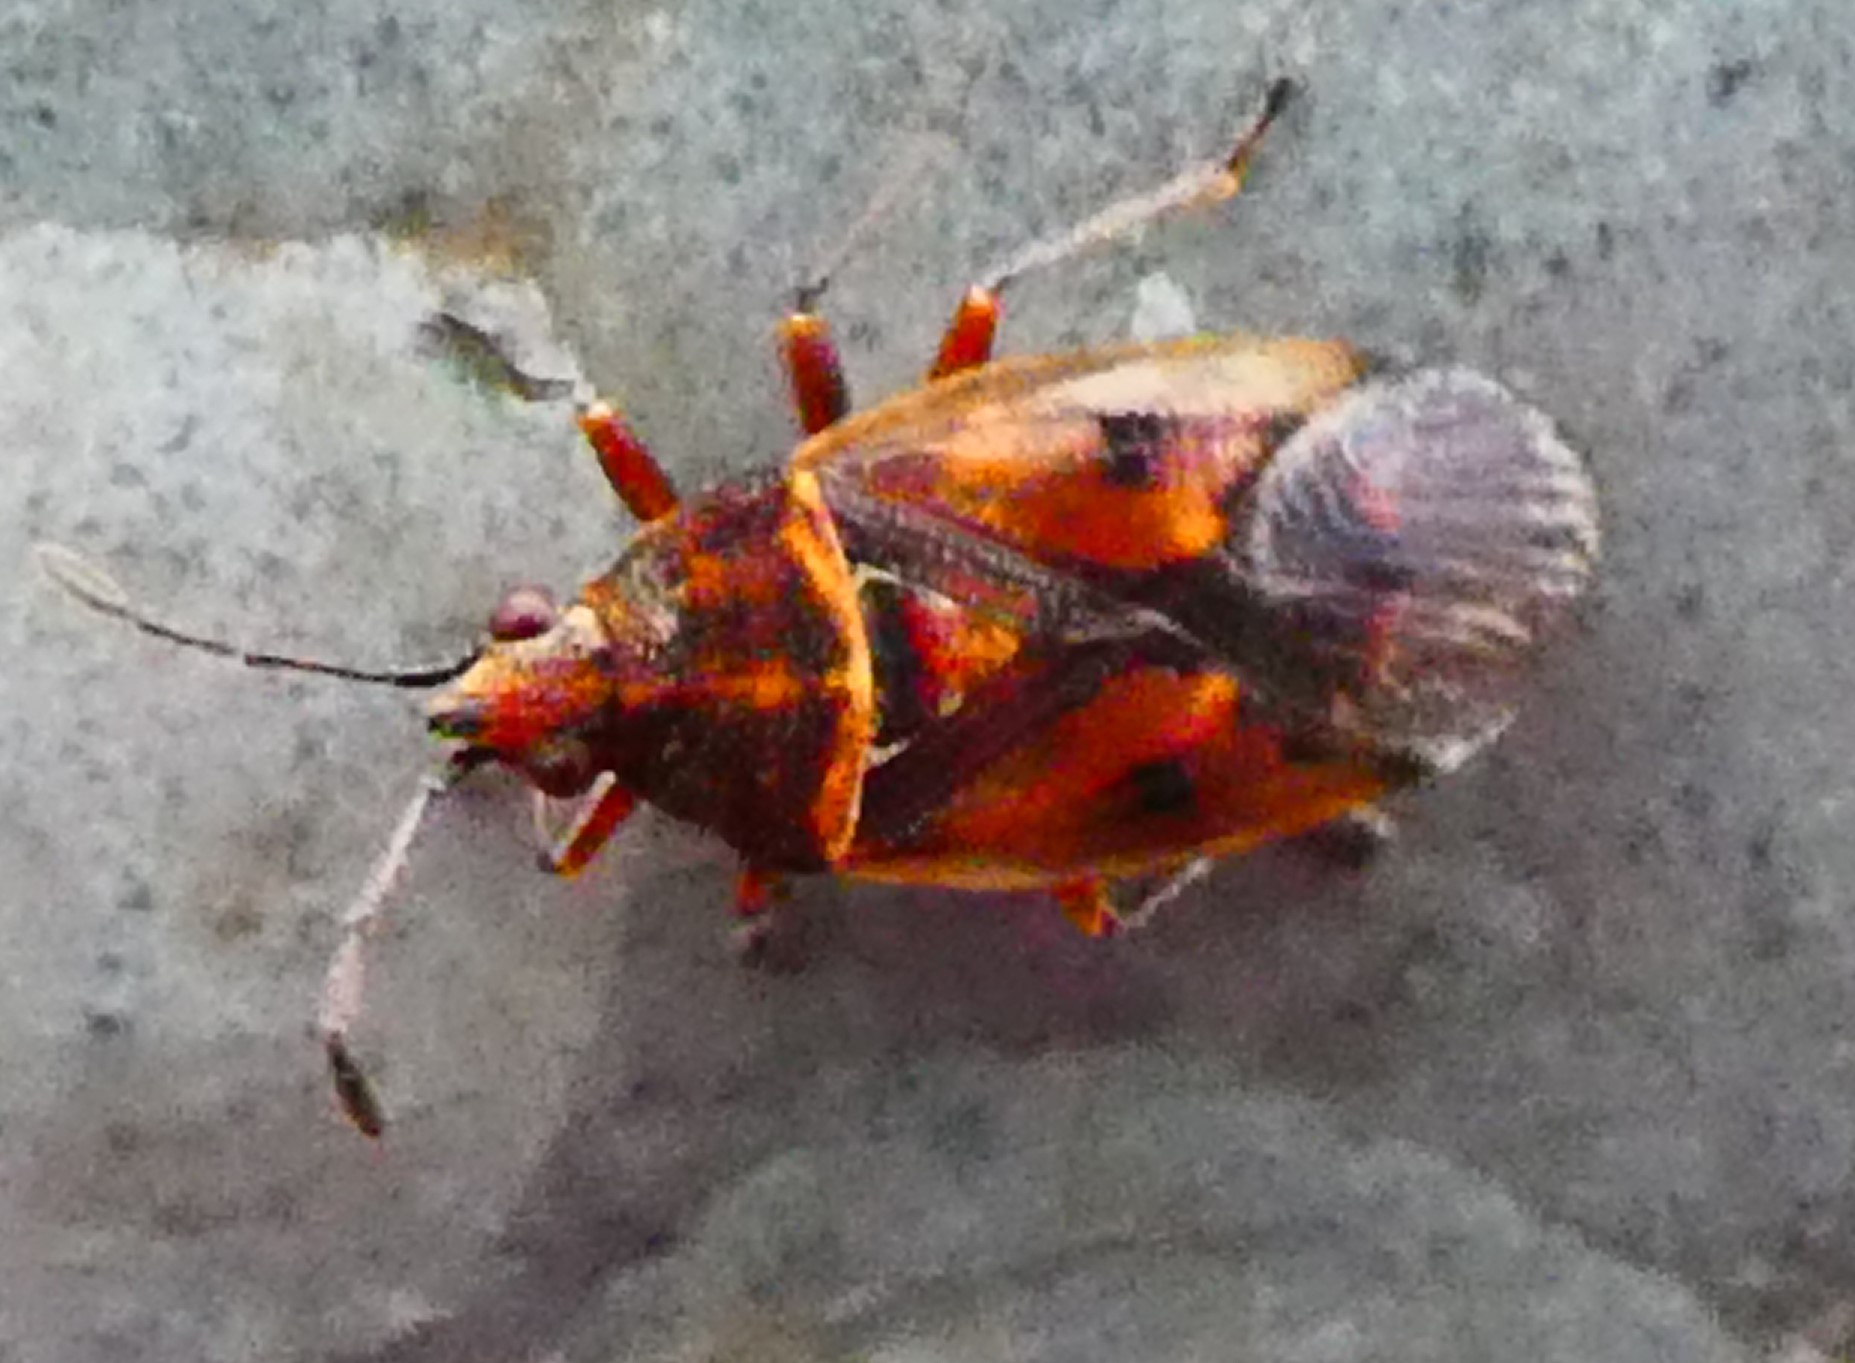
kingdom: Animalia
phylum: Arthropoda
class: Insecta
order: Hemiptera
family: Lygaeidae
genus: Kleidocerys
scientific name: Kleidocerys resedae
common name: Birch catkin bug
